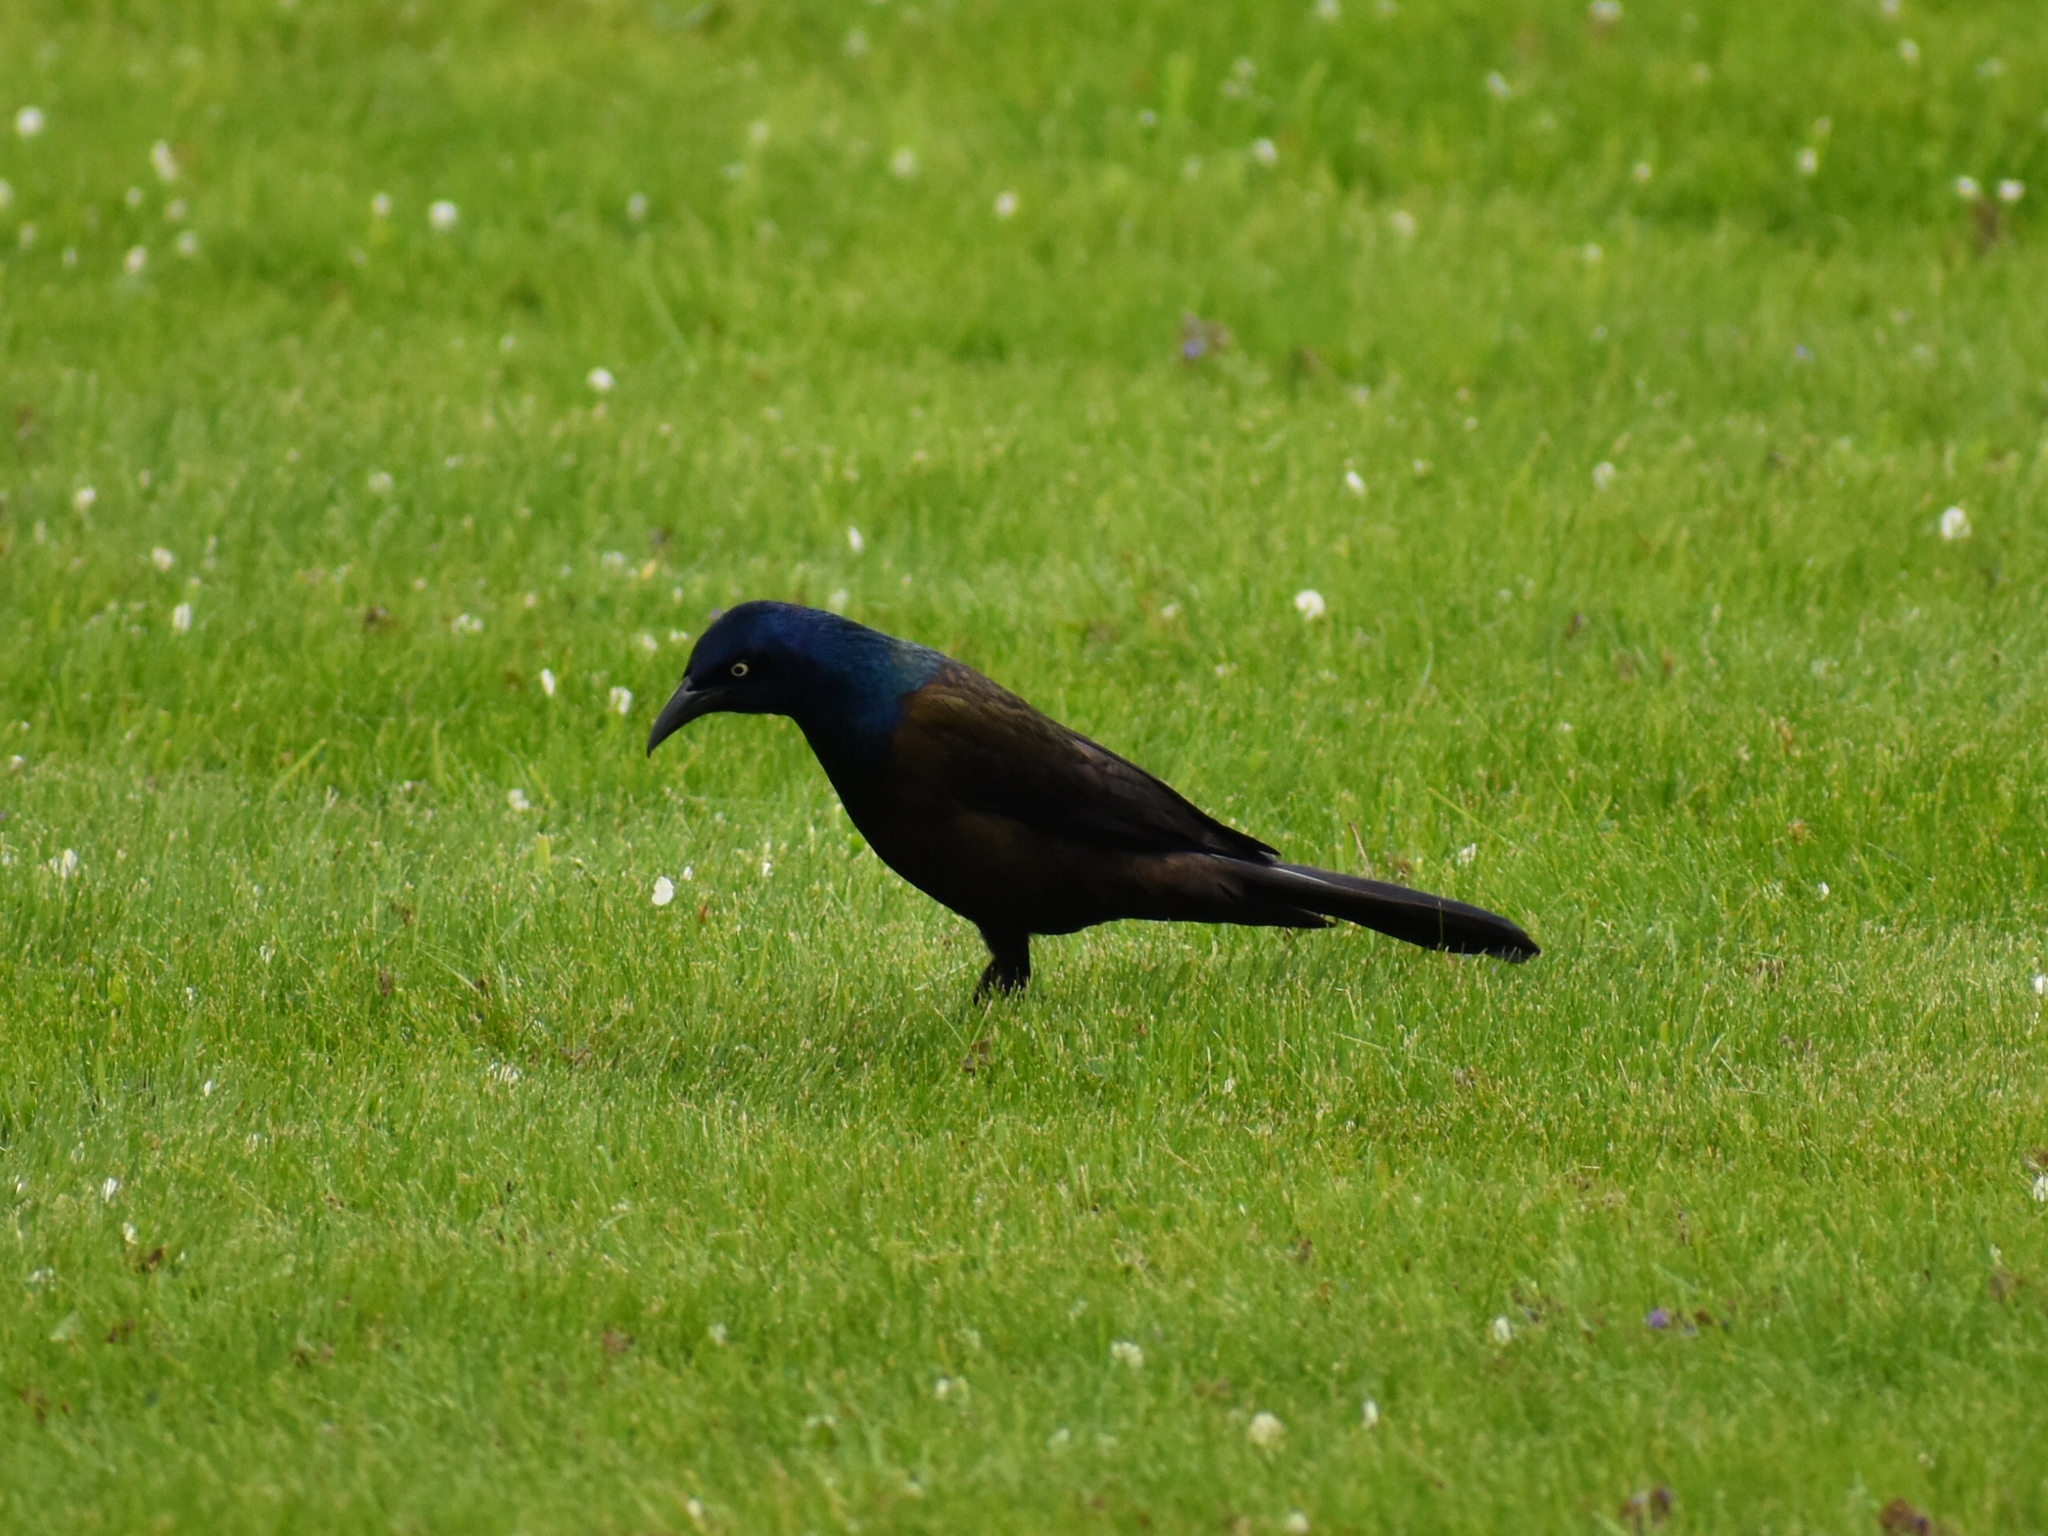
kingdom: Animalia
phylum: Chordata
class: Aves
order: Passeriformes
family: Icteridae
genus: Quiscalus
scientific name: Quiscalus quiscula
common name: Common grackle
